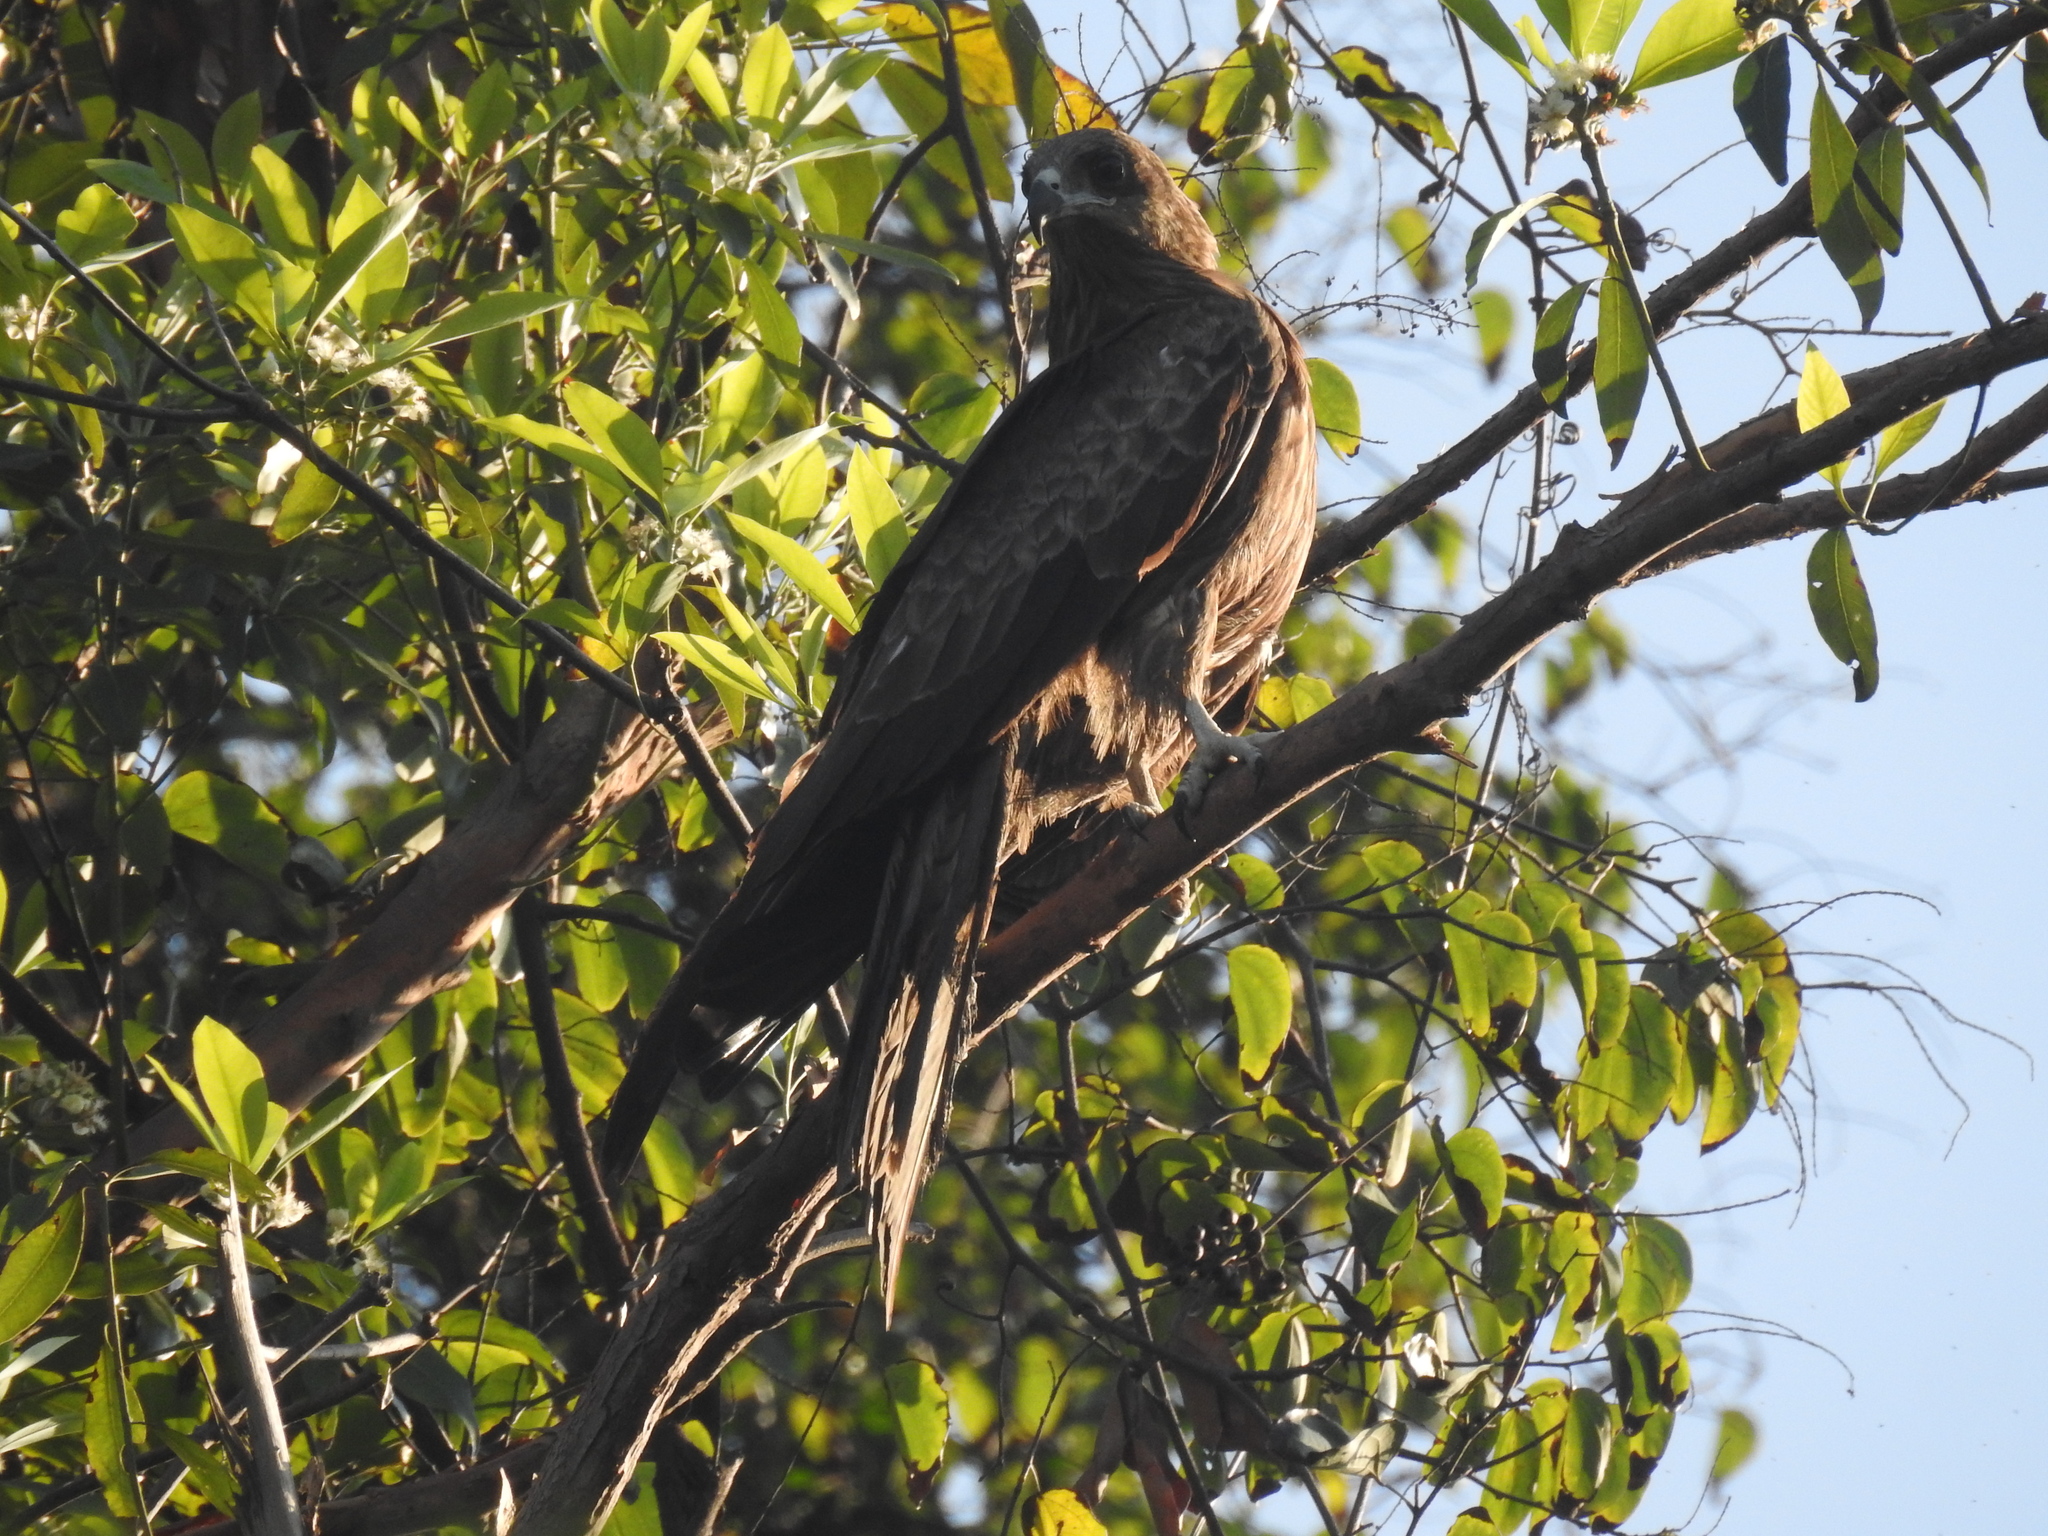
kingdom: Animalia
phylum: Chordata
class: Aves
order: Accipitriformes
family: Accipitridae
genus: Milvus
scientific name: Milvus migrans
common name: Black kite
